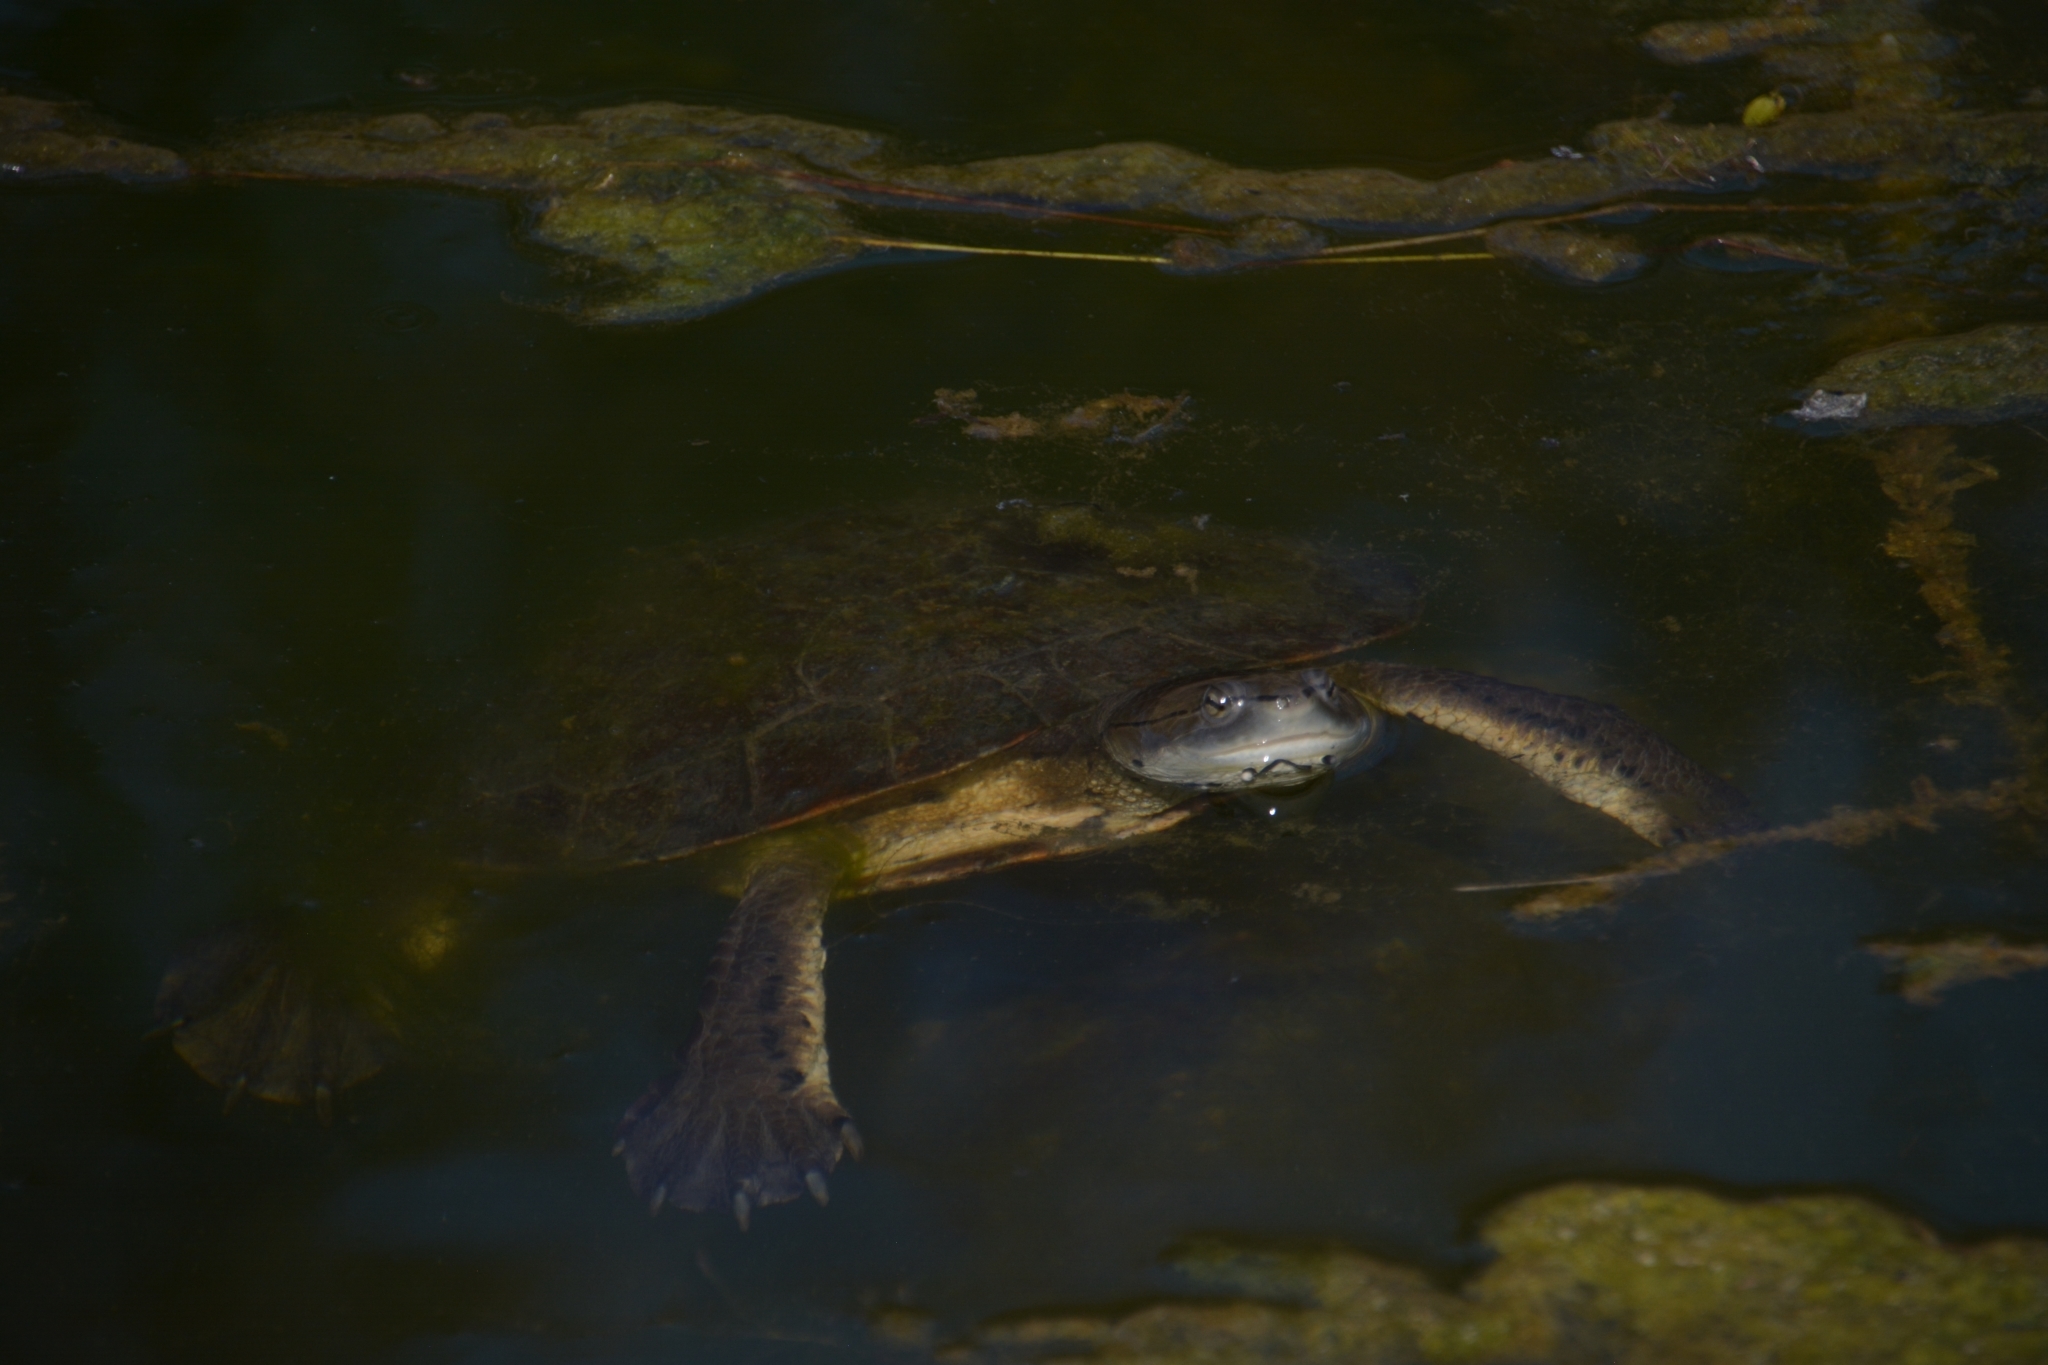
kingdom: Animalia
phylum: Chordata
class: Testudines
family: Chelidae
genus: Phrynops
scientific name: Phrynops hilarii
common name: Side-necked turtle of saint hillaire
